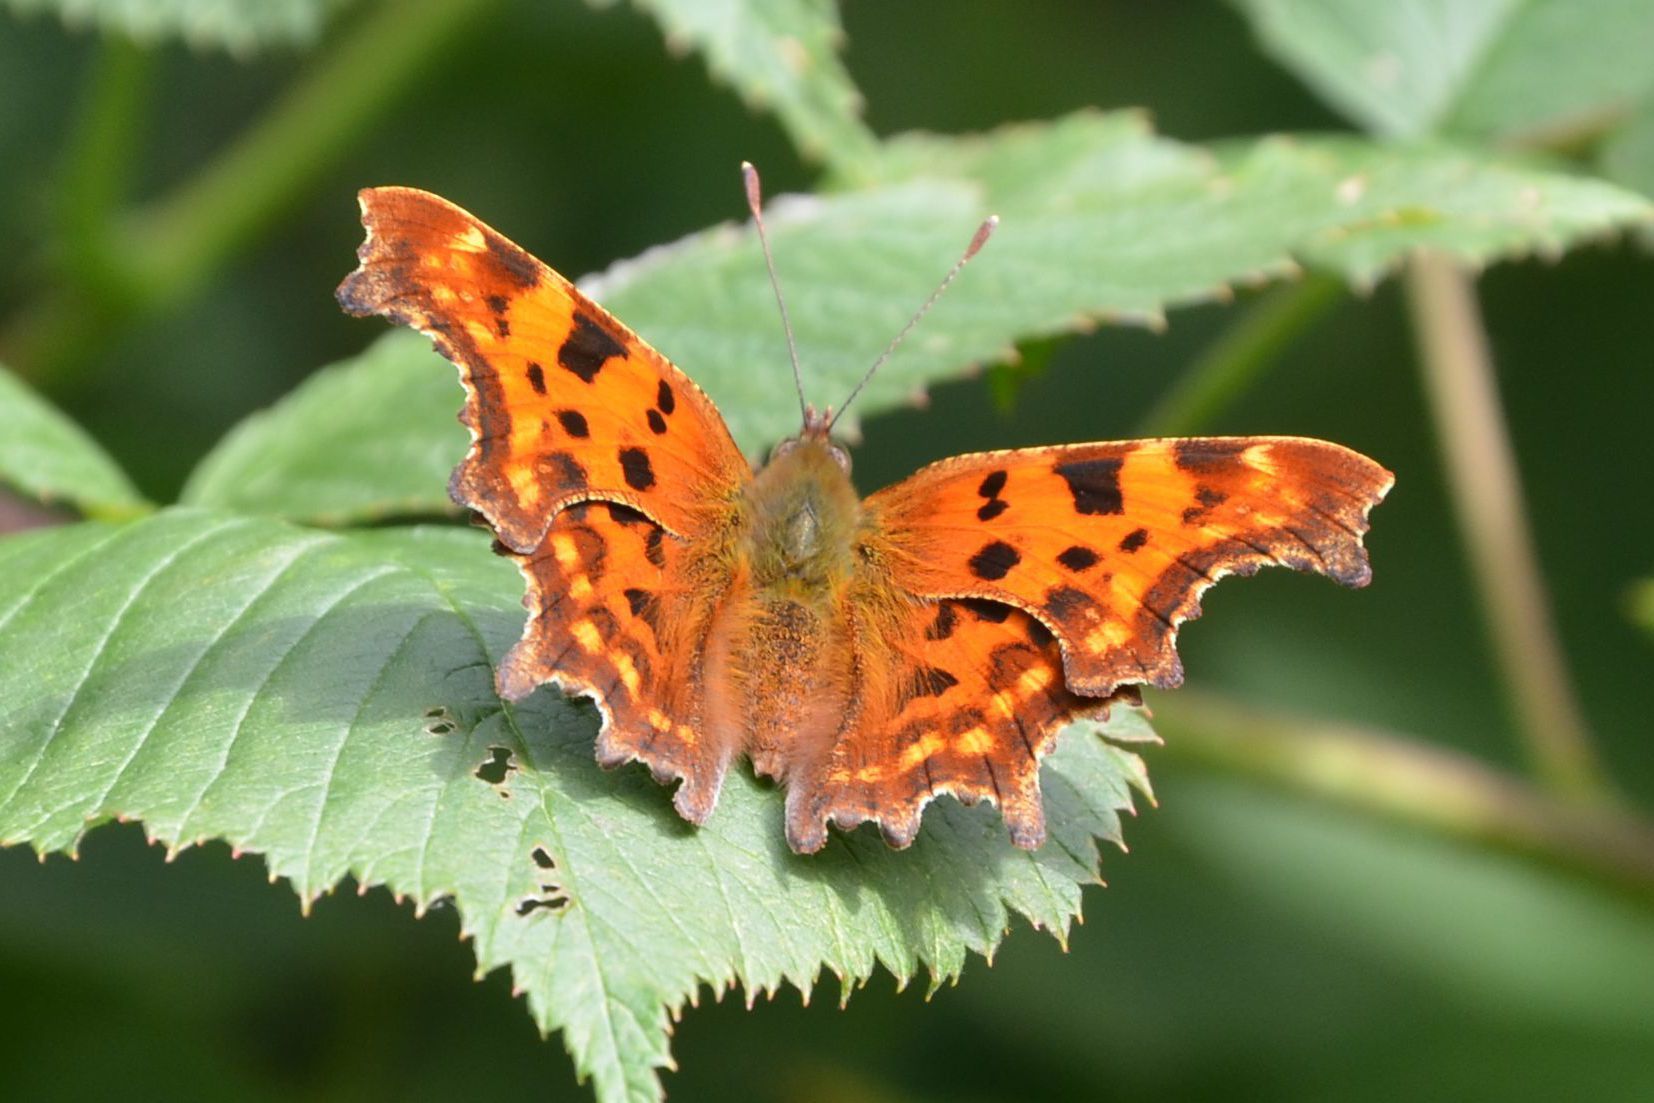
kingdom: Animalia
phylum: Arthropoda
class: Insecta
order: Lepidoptera
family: Nymphalidae
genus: Polygonia
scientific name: Polygonia c-album
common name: Comma
